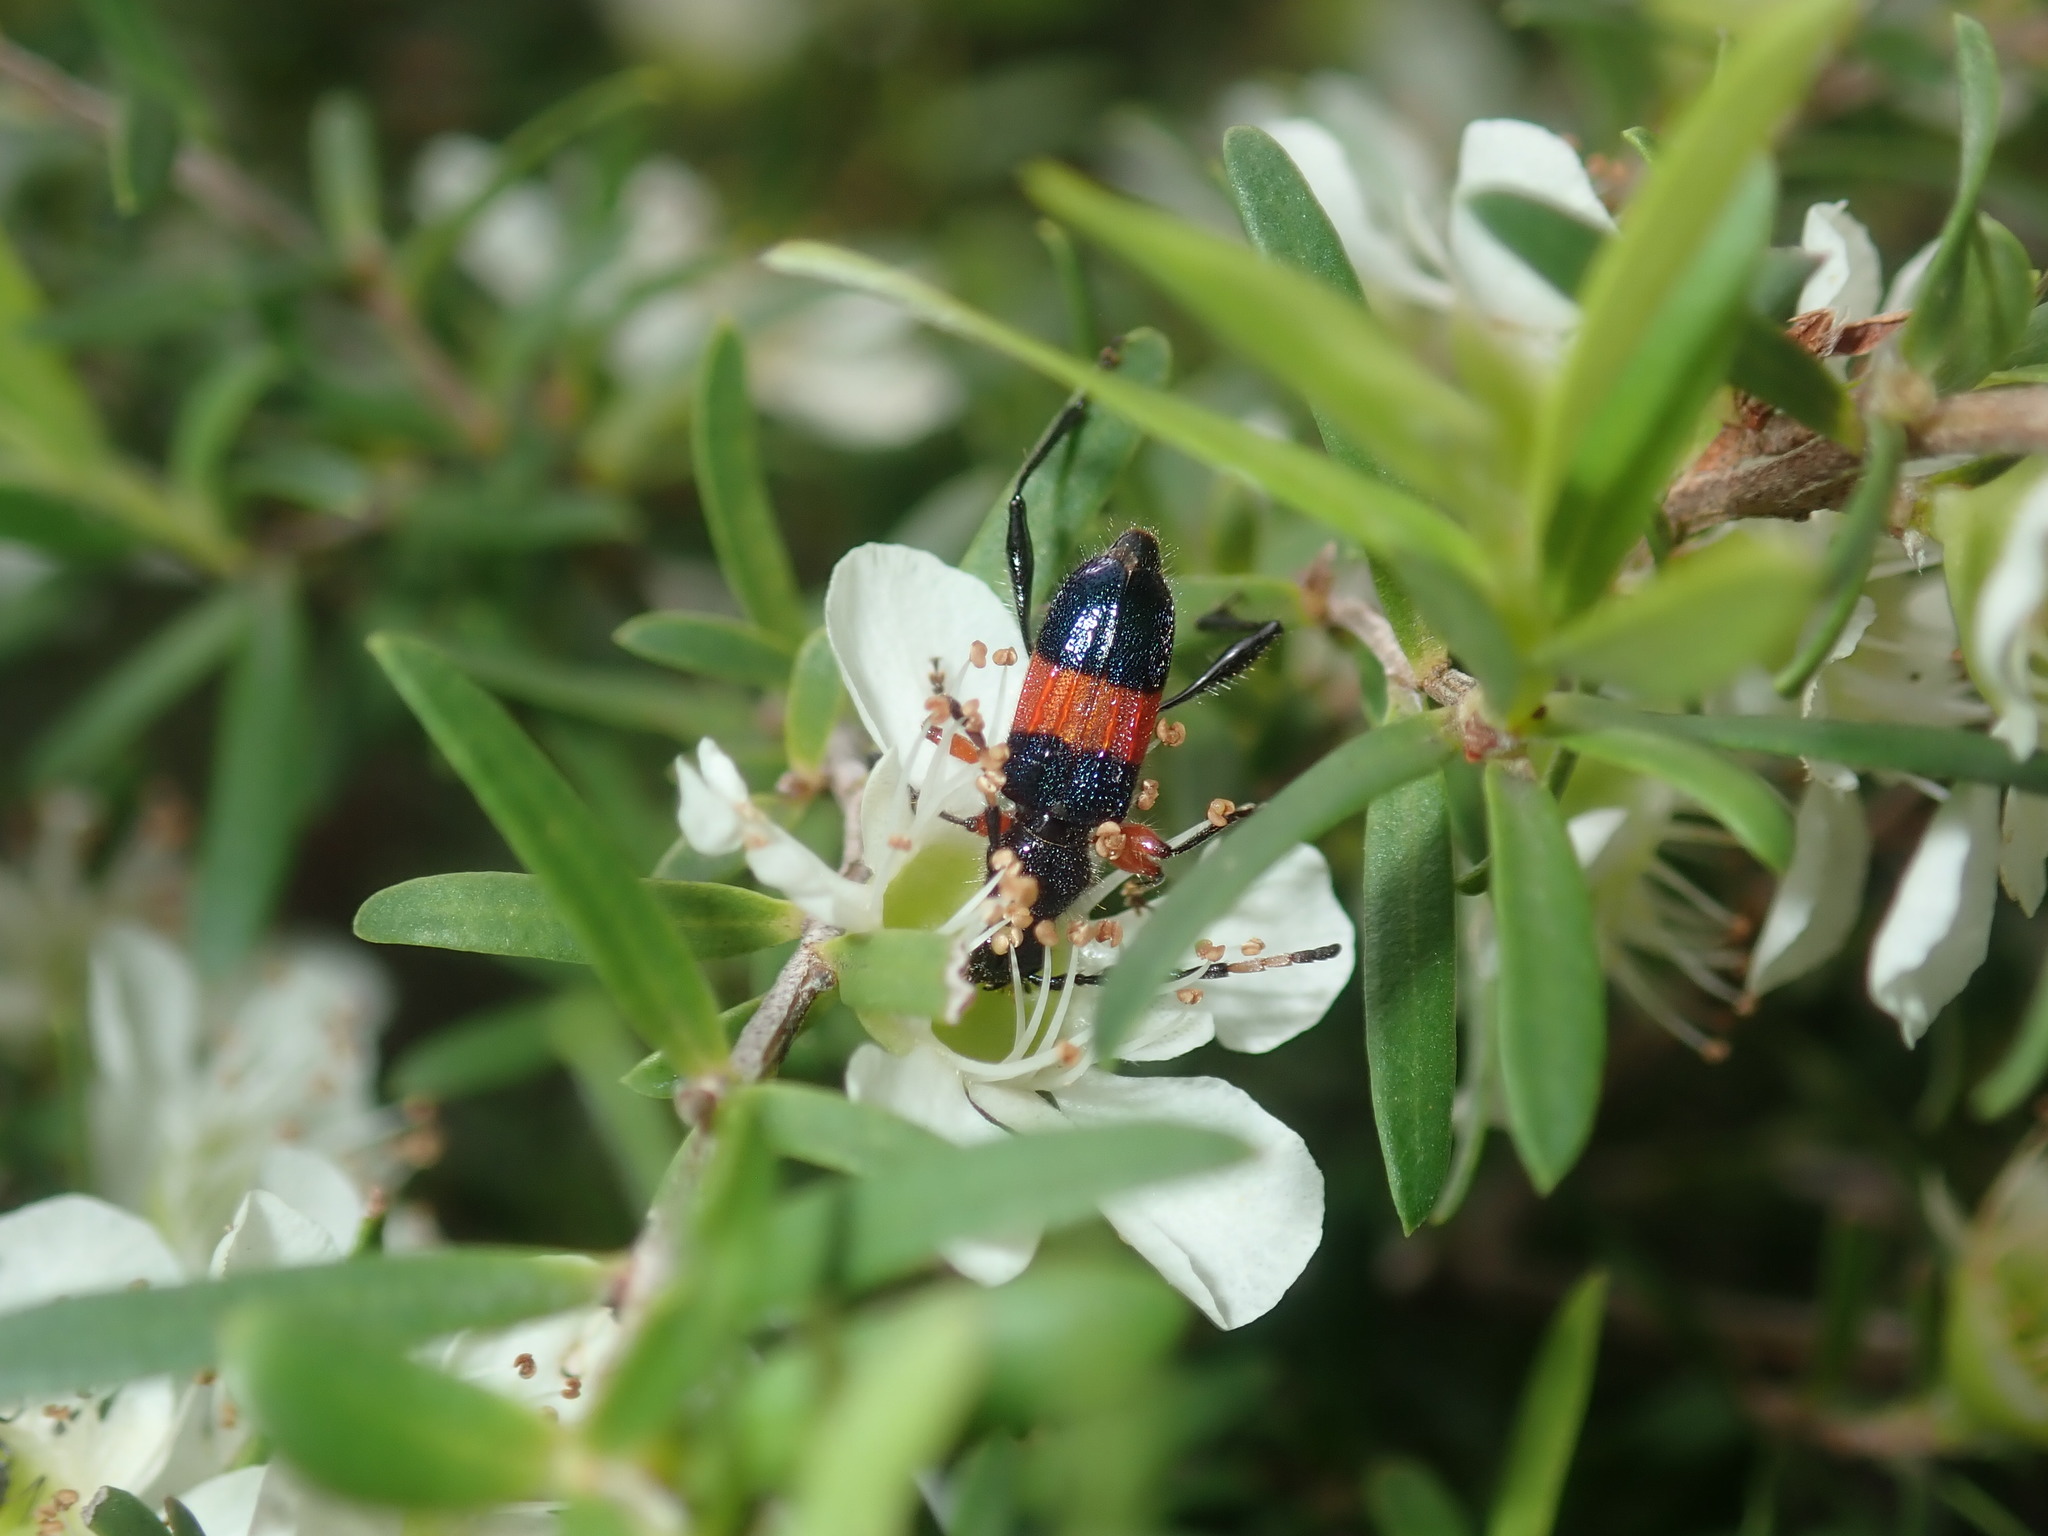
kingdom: Animalia
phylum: Arthropoda
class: Insecta
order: Coleoptera
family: Cerambycidae
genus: Obrida
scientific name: Obrida fascialis
